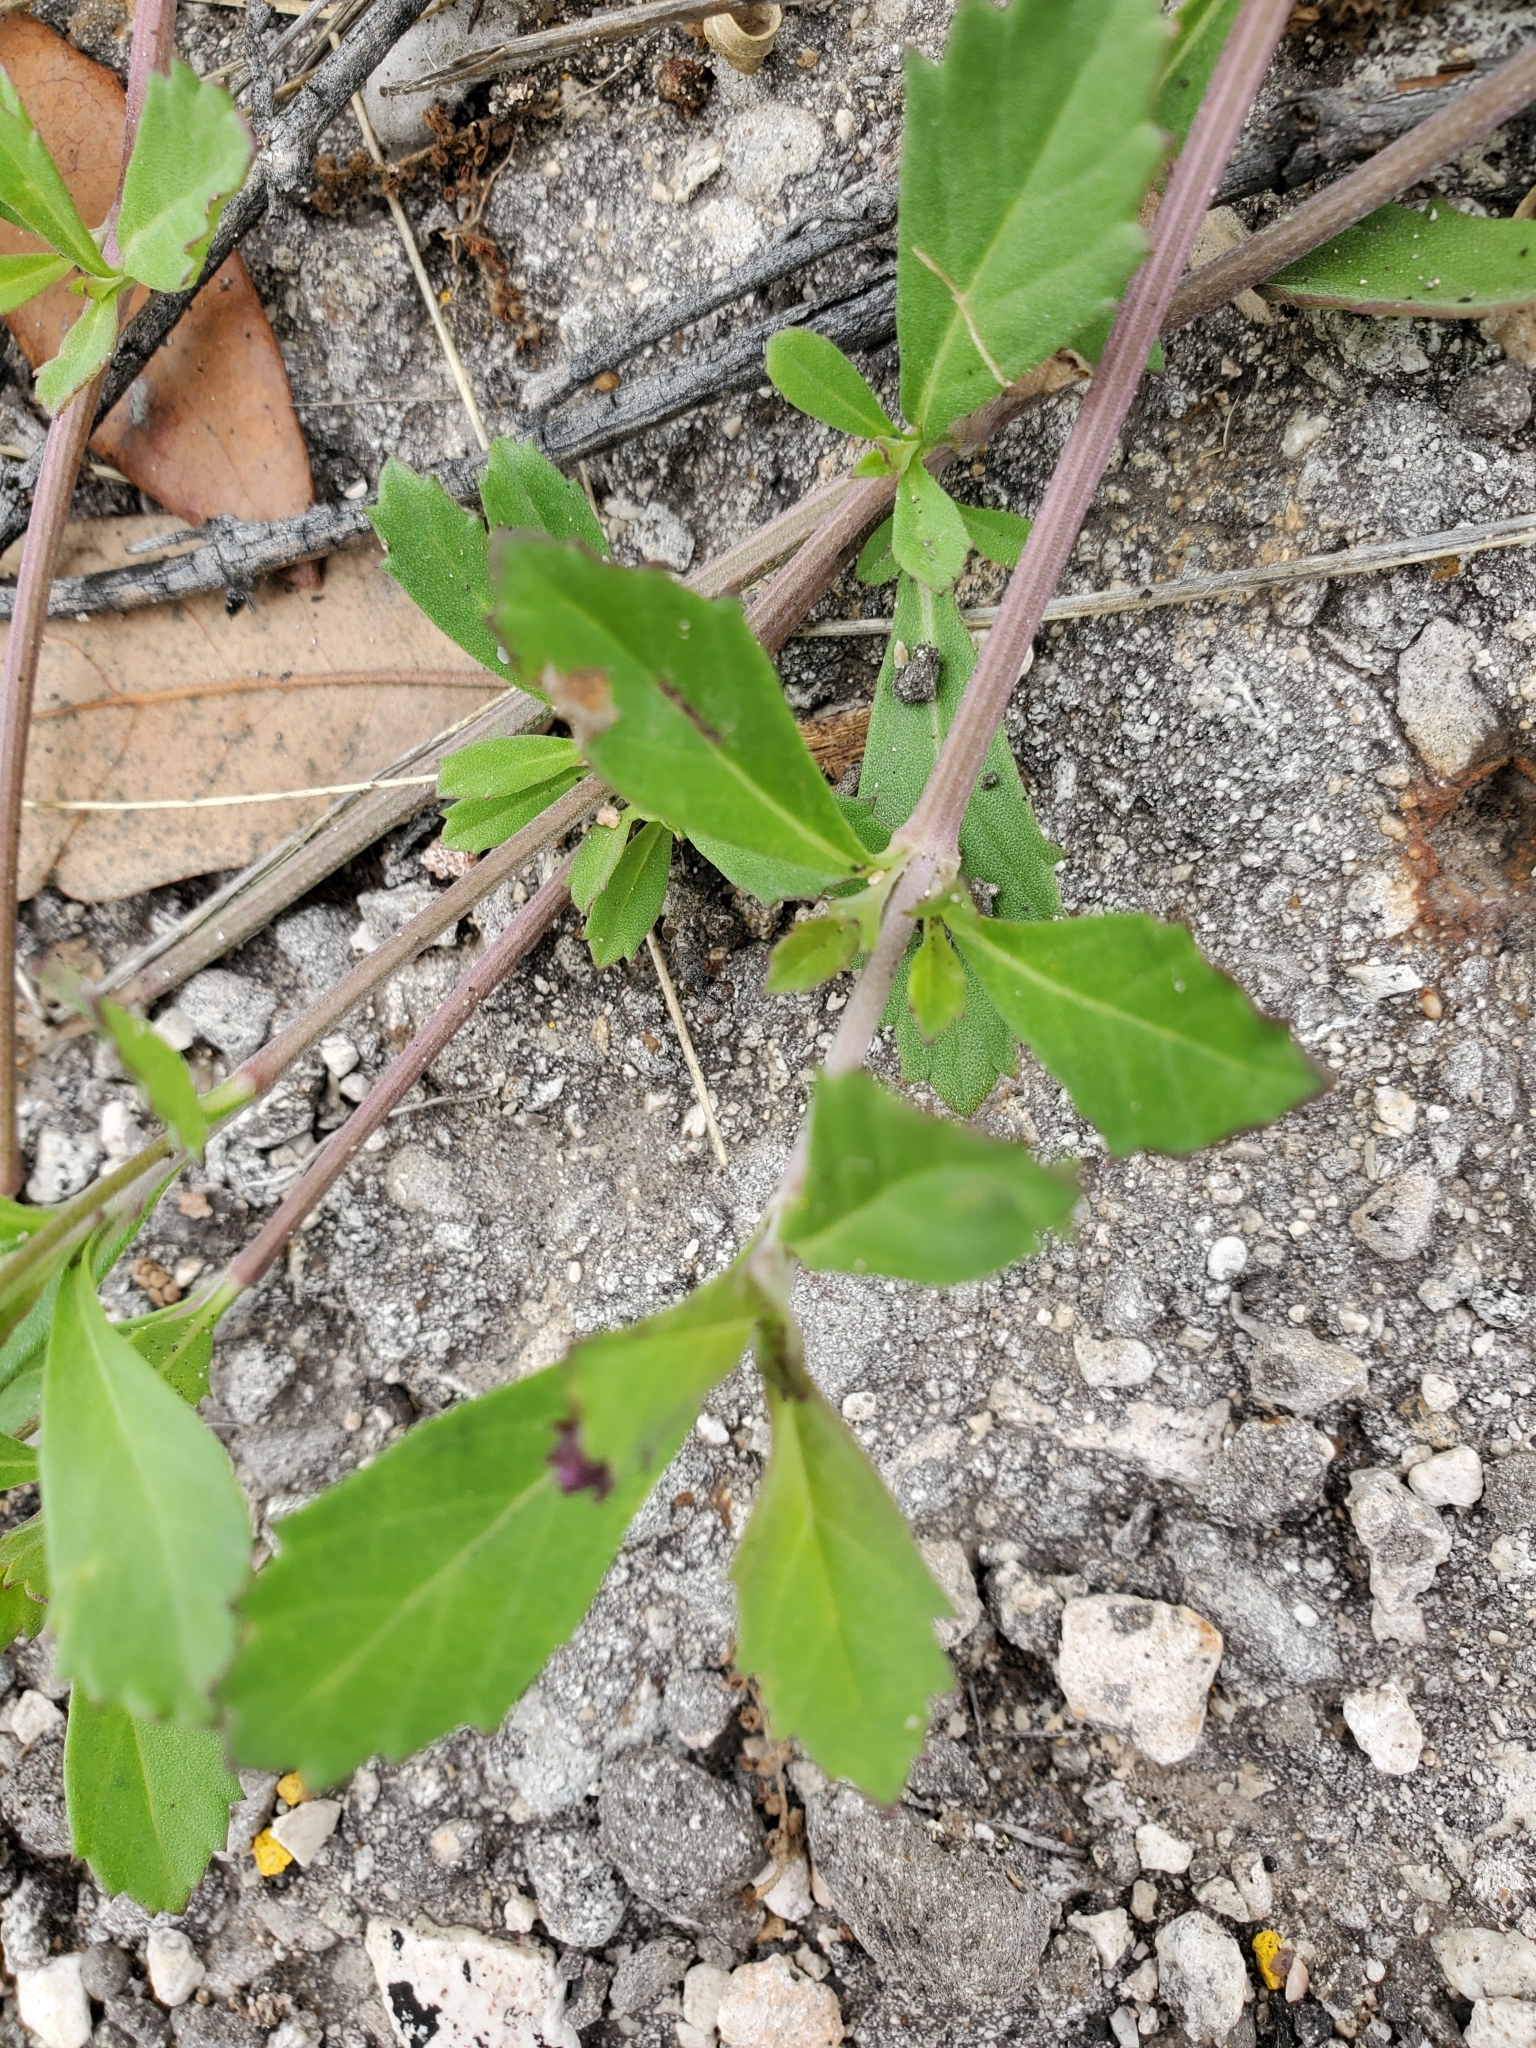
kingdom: Plantae
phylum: Tracheophyta
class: Magnoliopsida
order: Lamiales
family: Verbenaceae
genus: Phyla
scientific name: Phyla nodiflora
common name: Frogfruit
